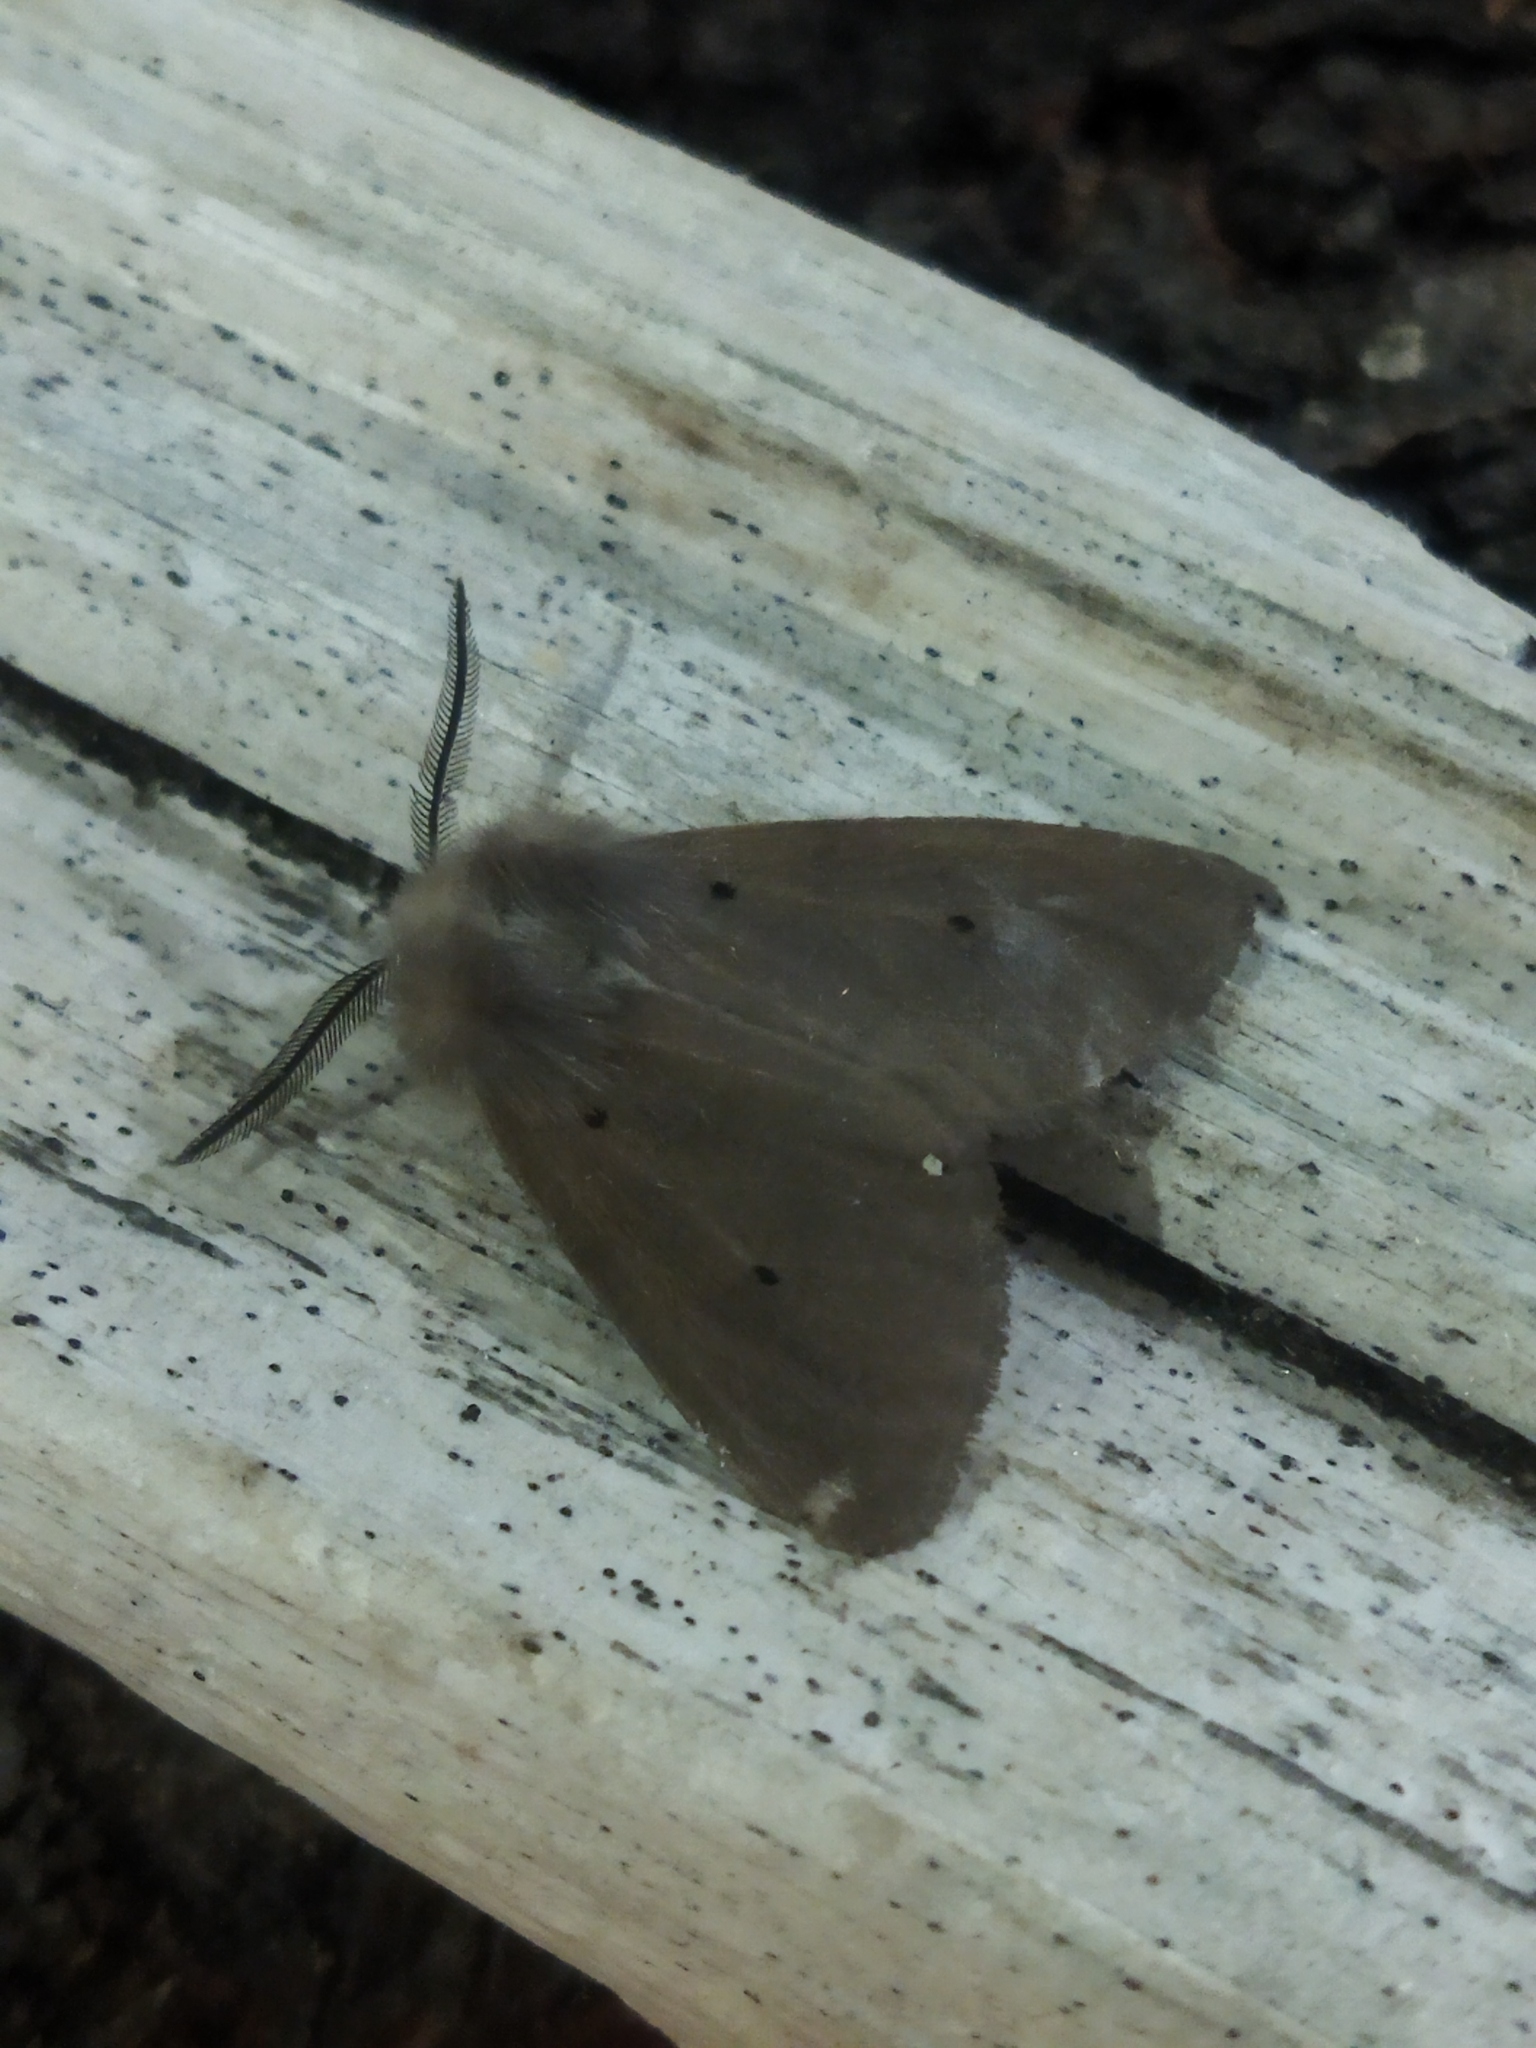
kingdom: Animalia
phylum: Arthropoda
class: Insecta
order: Lepidoptera
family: Erebidae
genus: Diaphora
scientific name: Diaphora mendica
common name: Muslin moth
